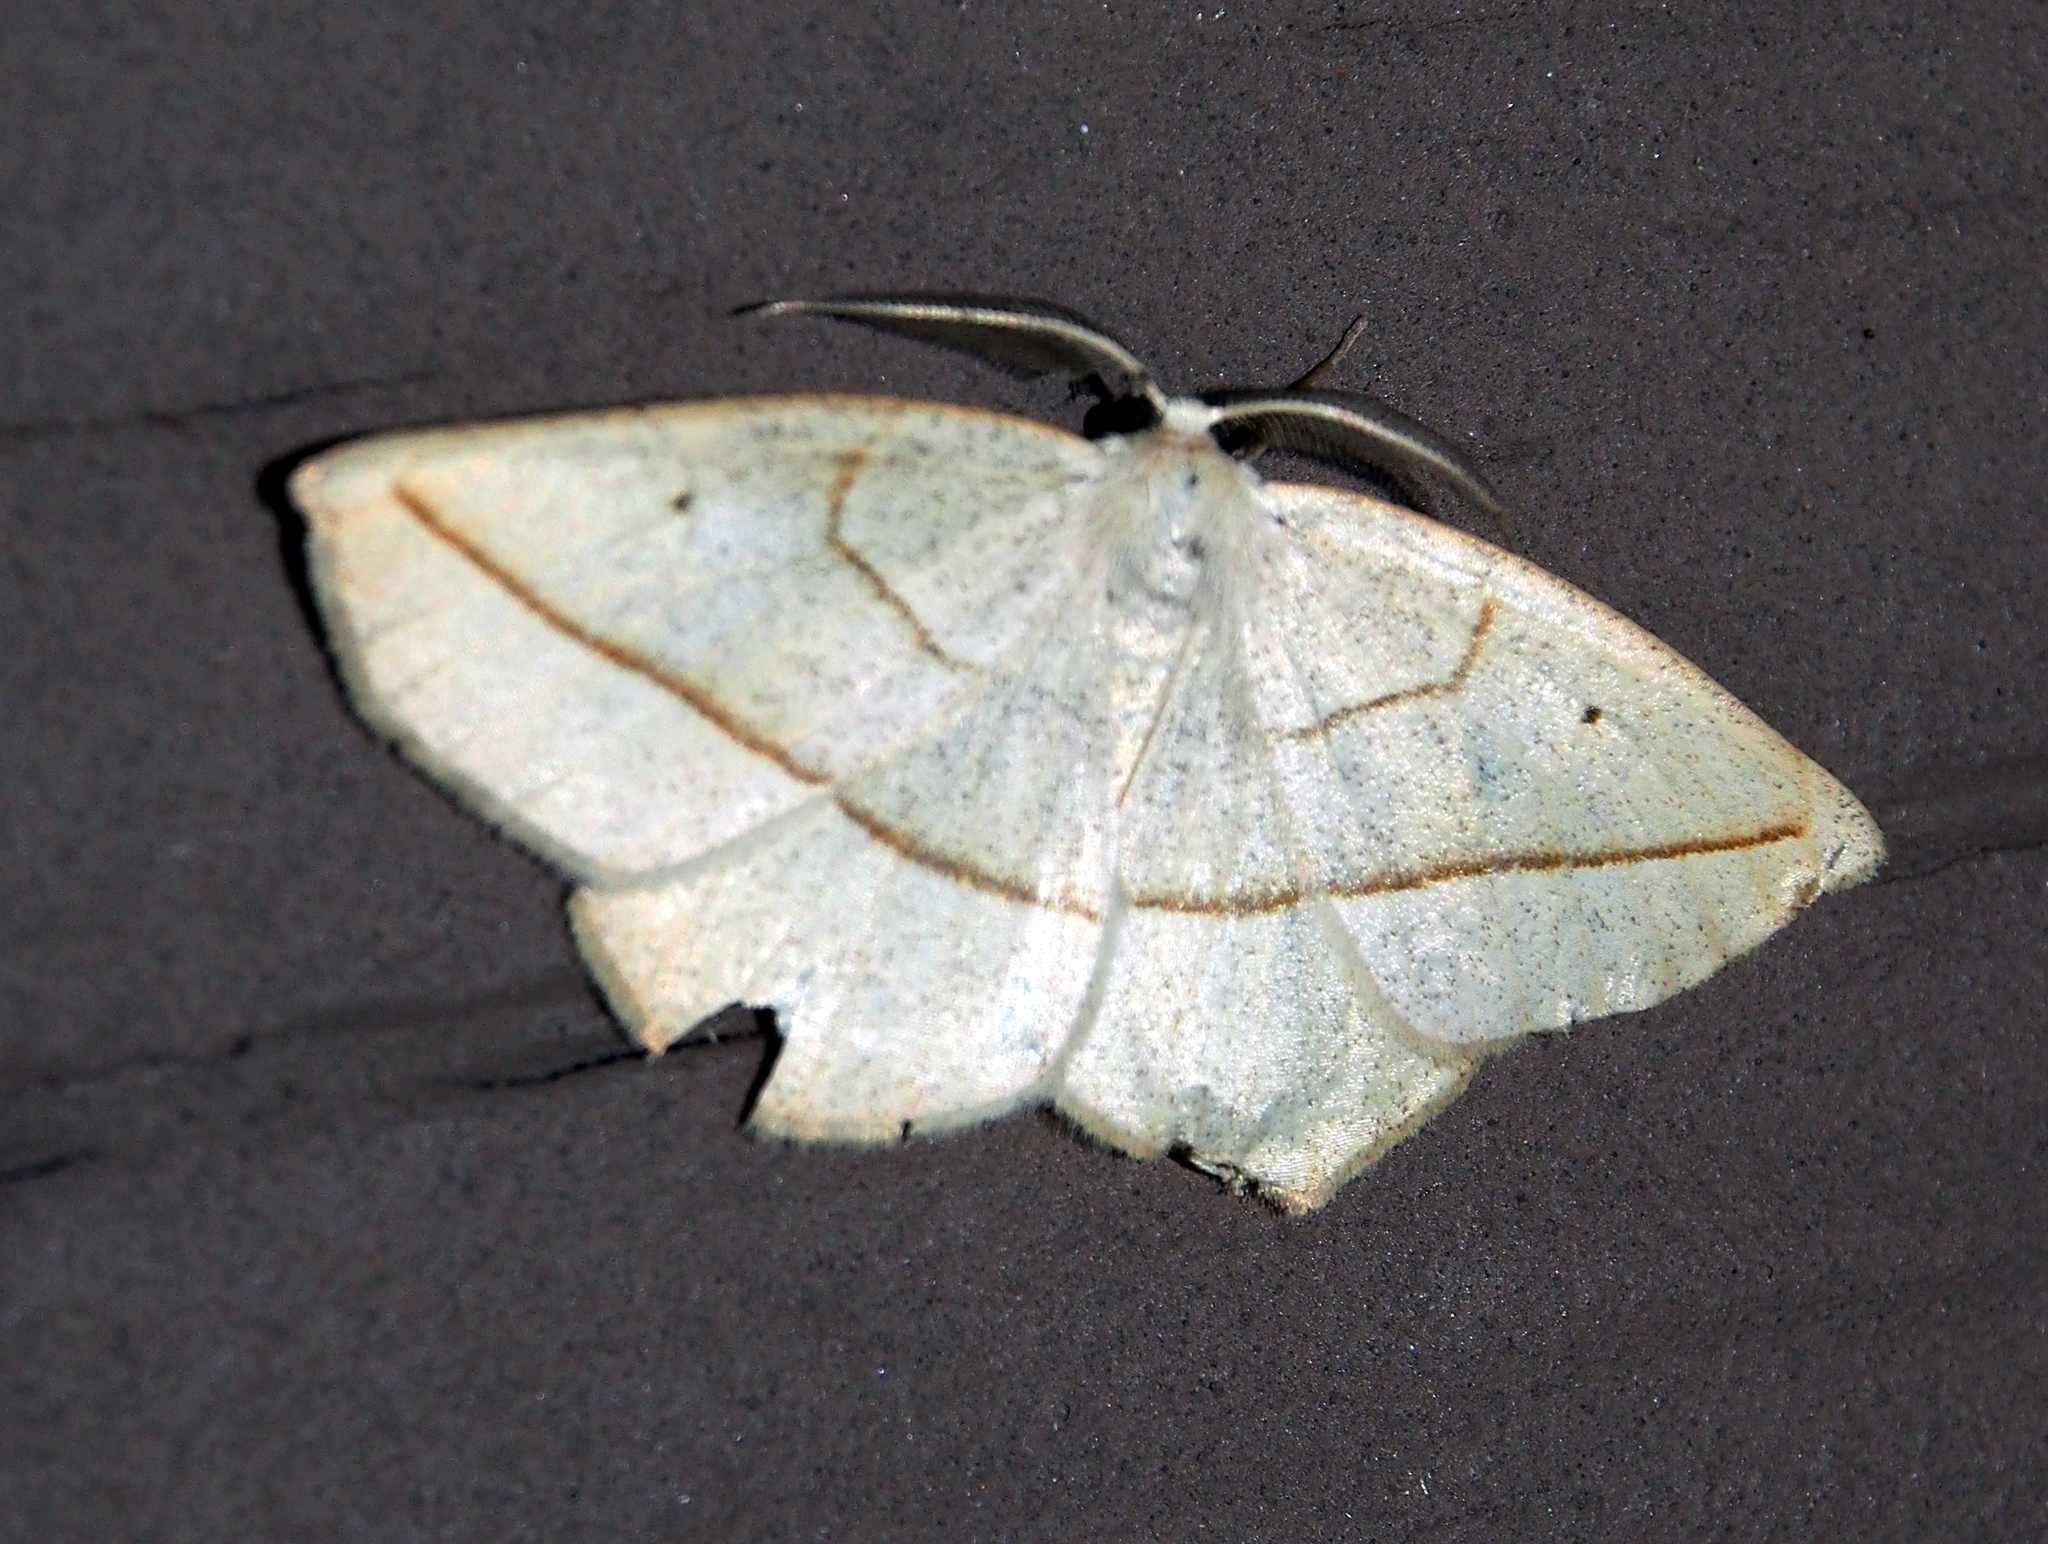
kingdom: Animalia
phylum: Arthropoda
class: Insecta
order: Lepidoptera
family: Geometridae
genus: Eusarca
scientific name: Eusarca confusaria
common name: Confused eusarca
